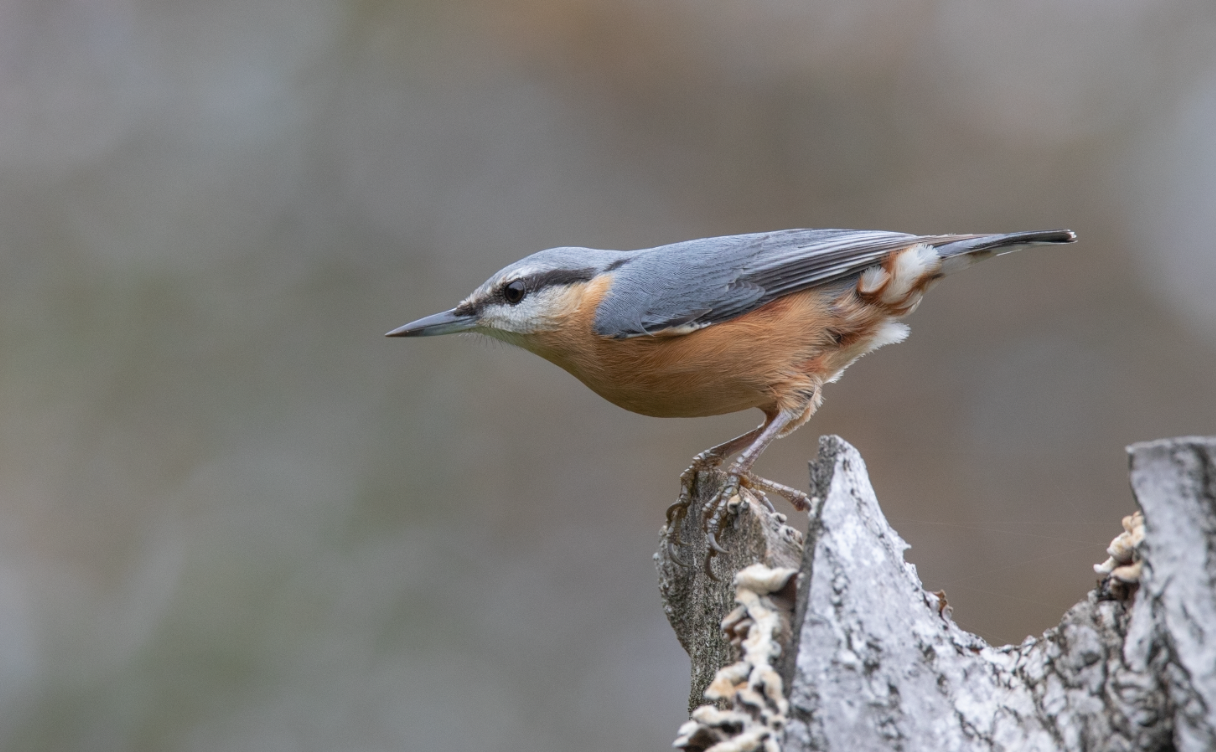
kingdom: Animalia
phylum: Chordata
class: Aves
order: Passeriformes
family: Sittidae
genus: Sitta
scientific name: Sitta europaea
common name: Eurasian nuthatch
